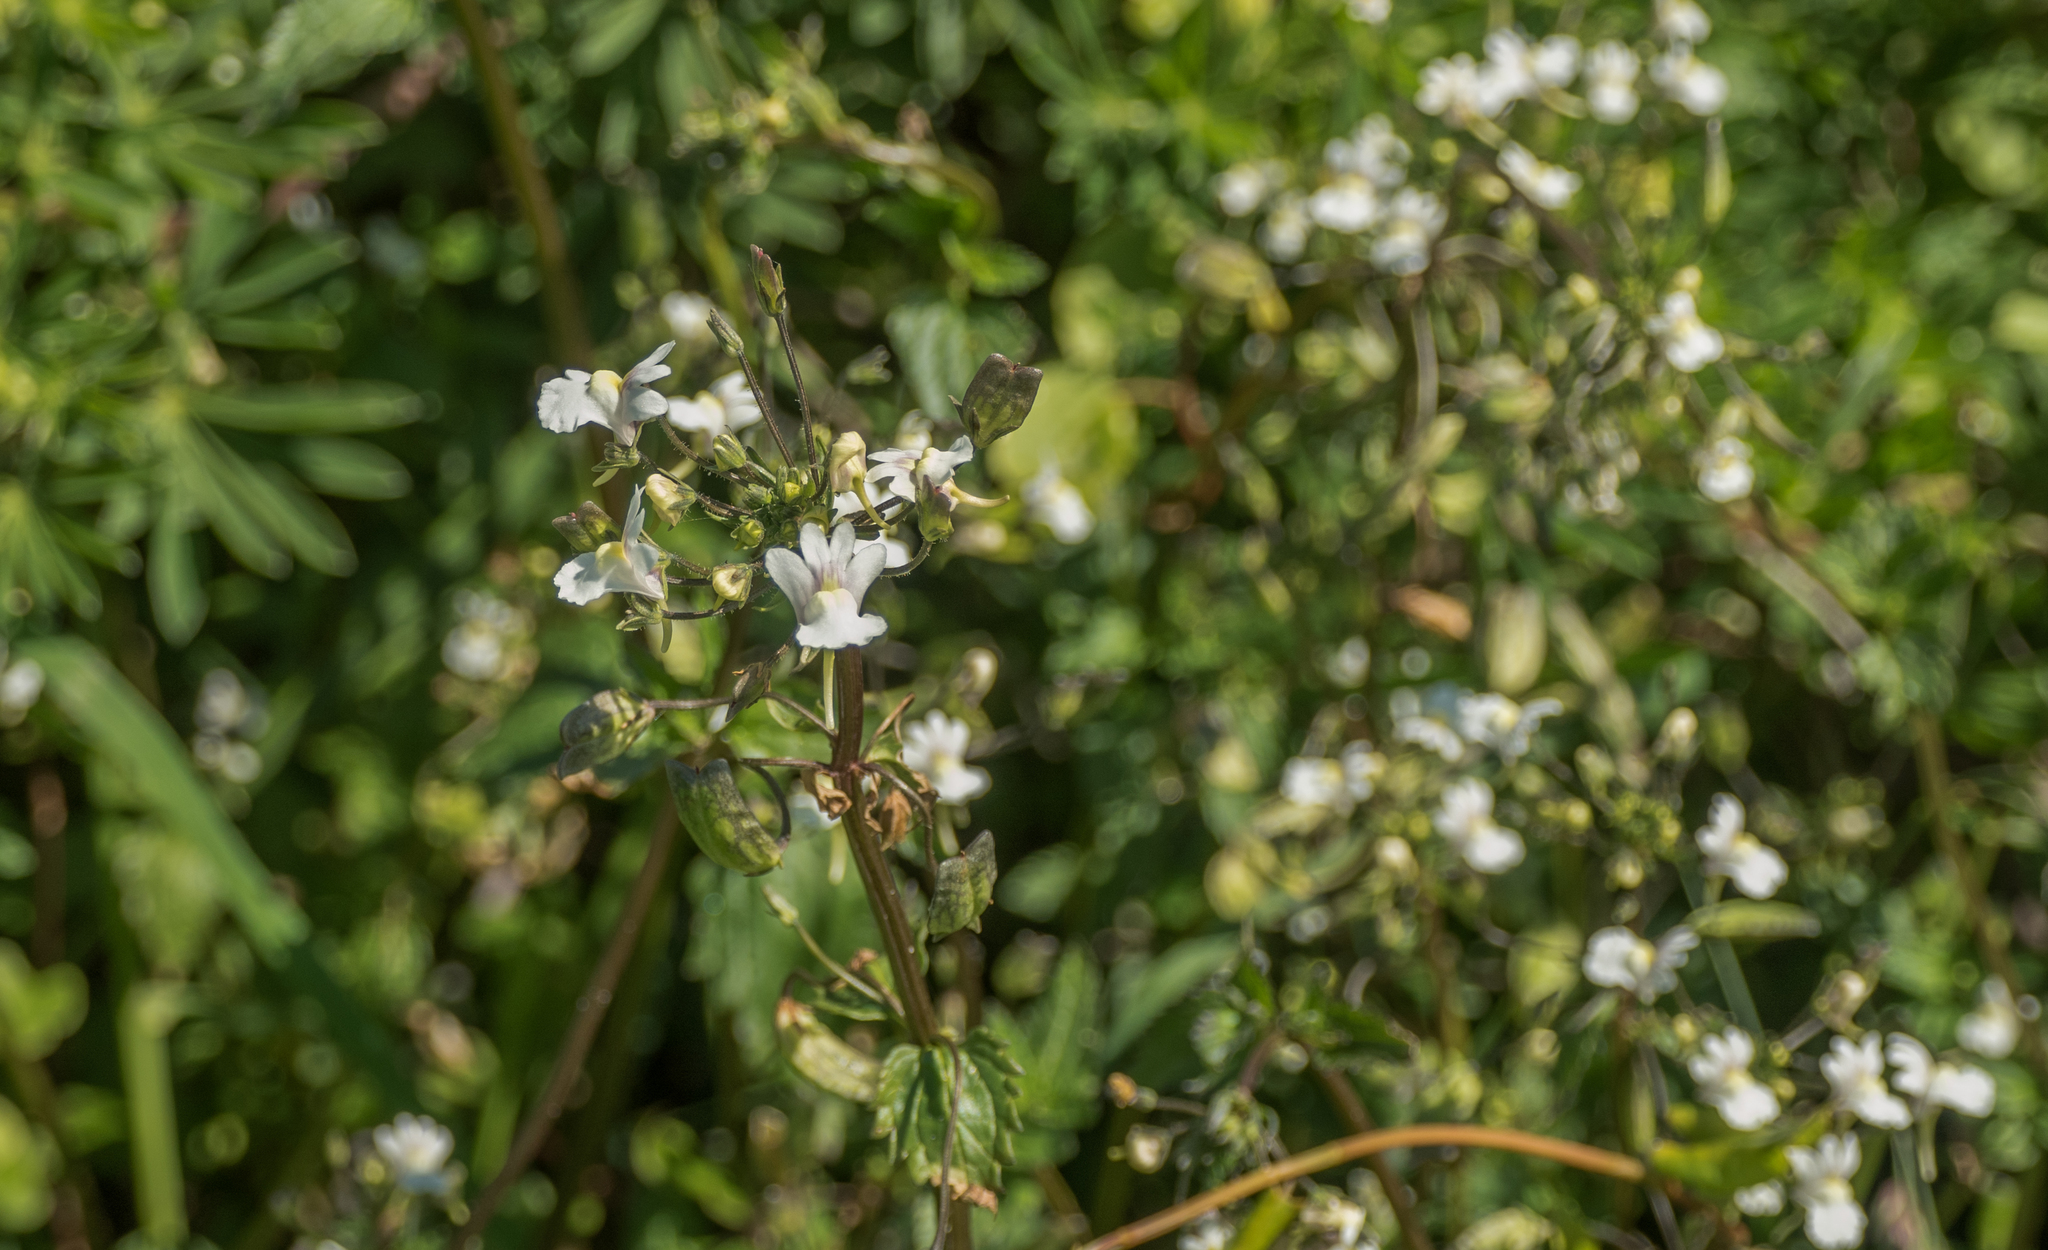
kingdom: Plantae
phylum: Tracheophyta
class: Magnoliopsida
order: Lamiales
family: Scrophulariaceae
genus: Nemesia
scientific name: Nemesia floribunda
